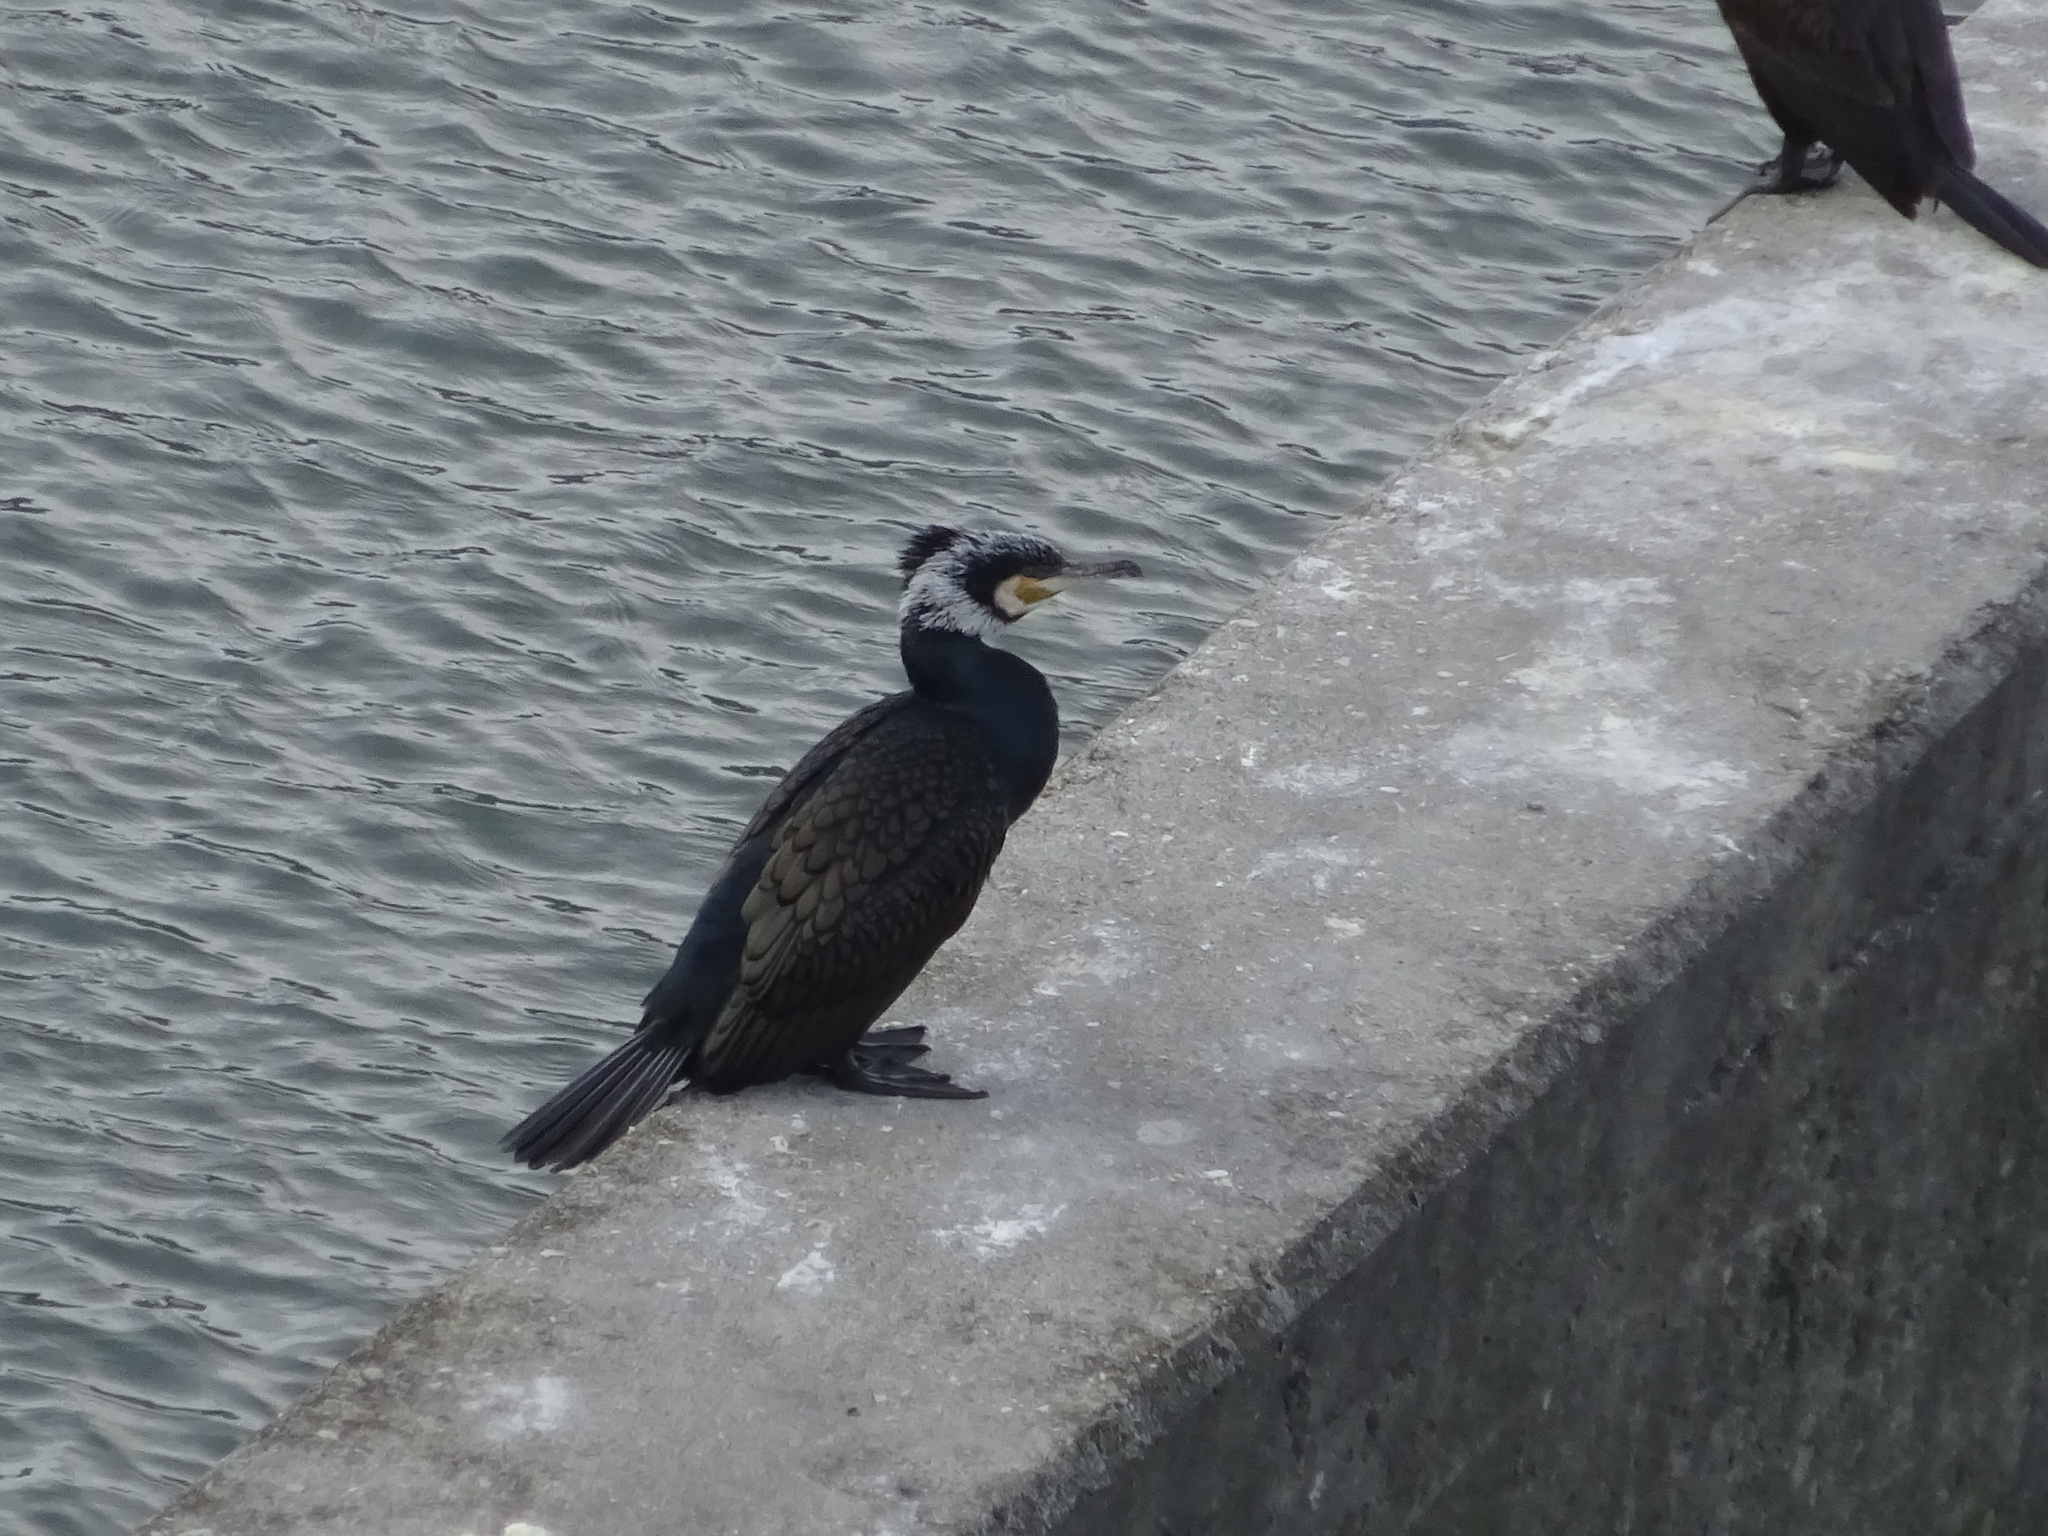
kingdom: Animalia
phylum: Chordata
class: Aves
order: Suliformes
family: Phalacrocoracidae
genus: Phalacrocorax
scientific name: Phalacrocorax carbo
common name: Great cormorant
